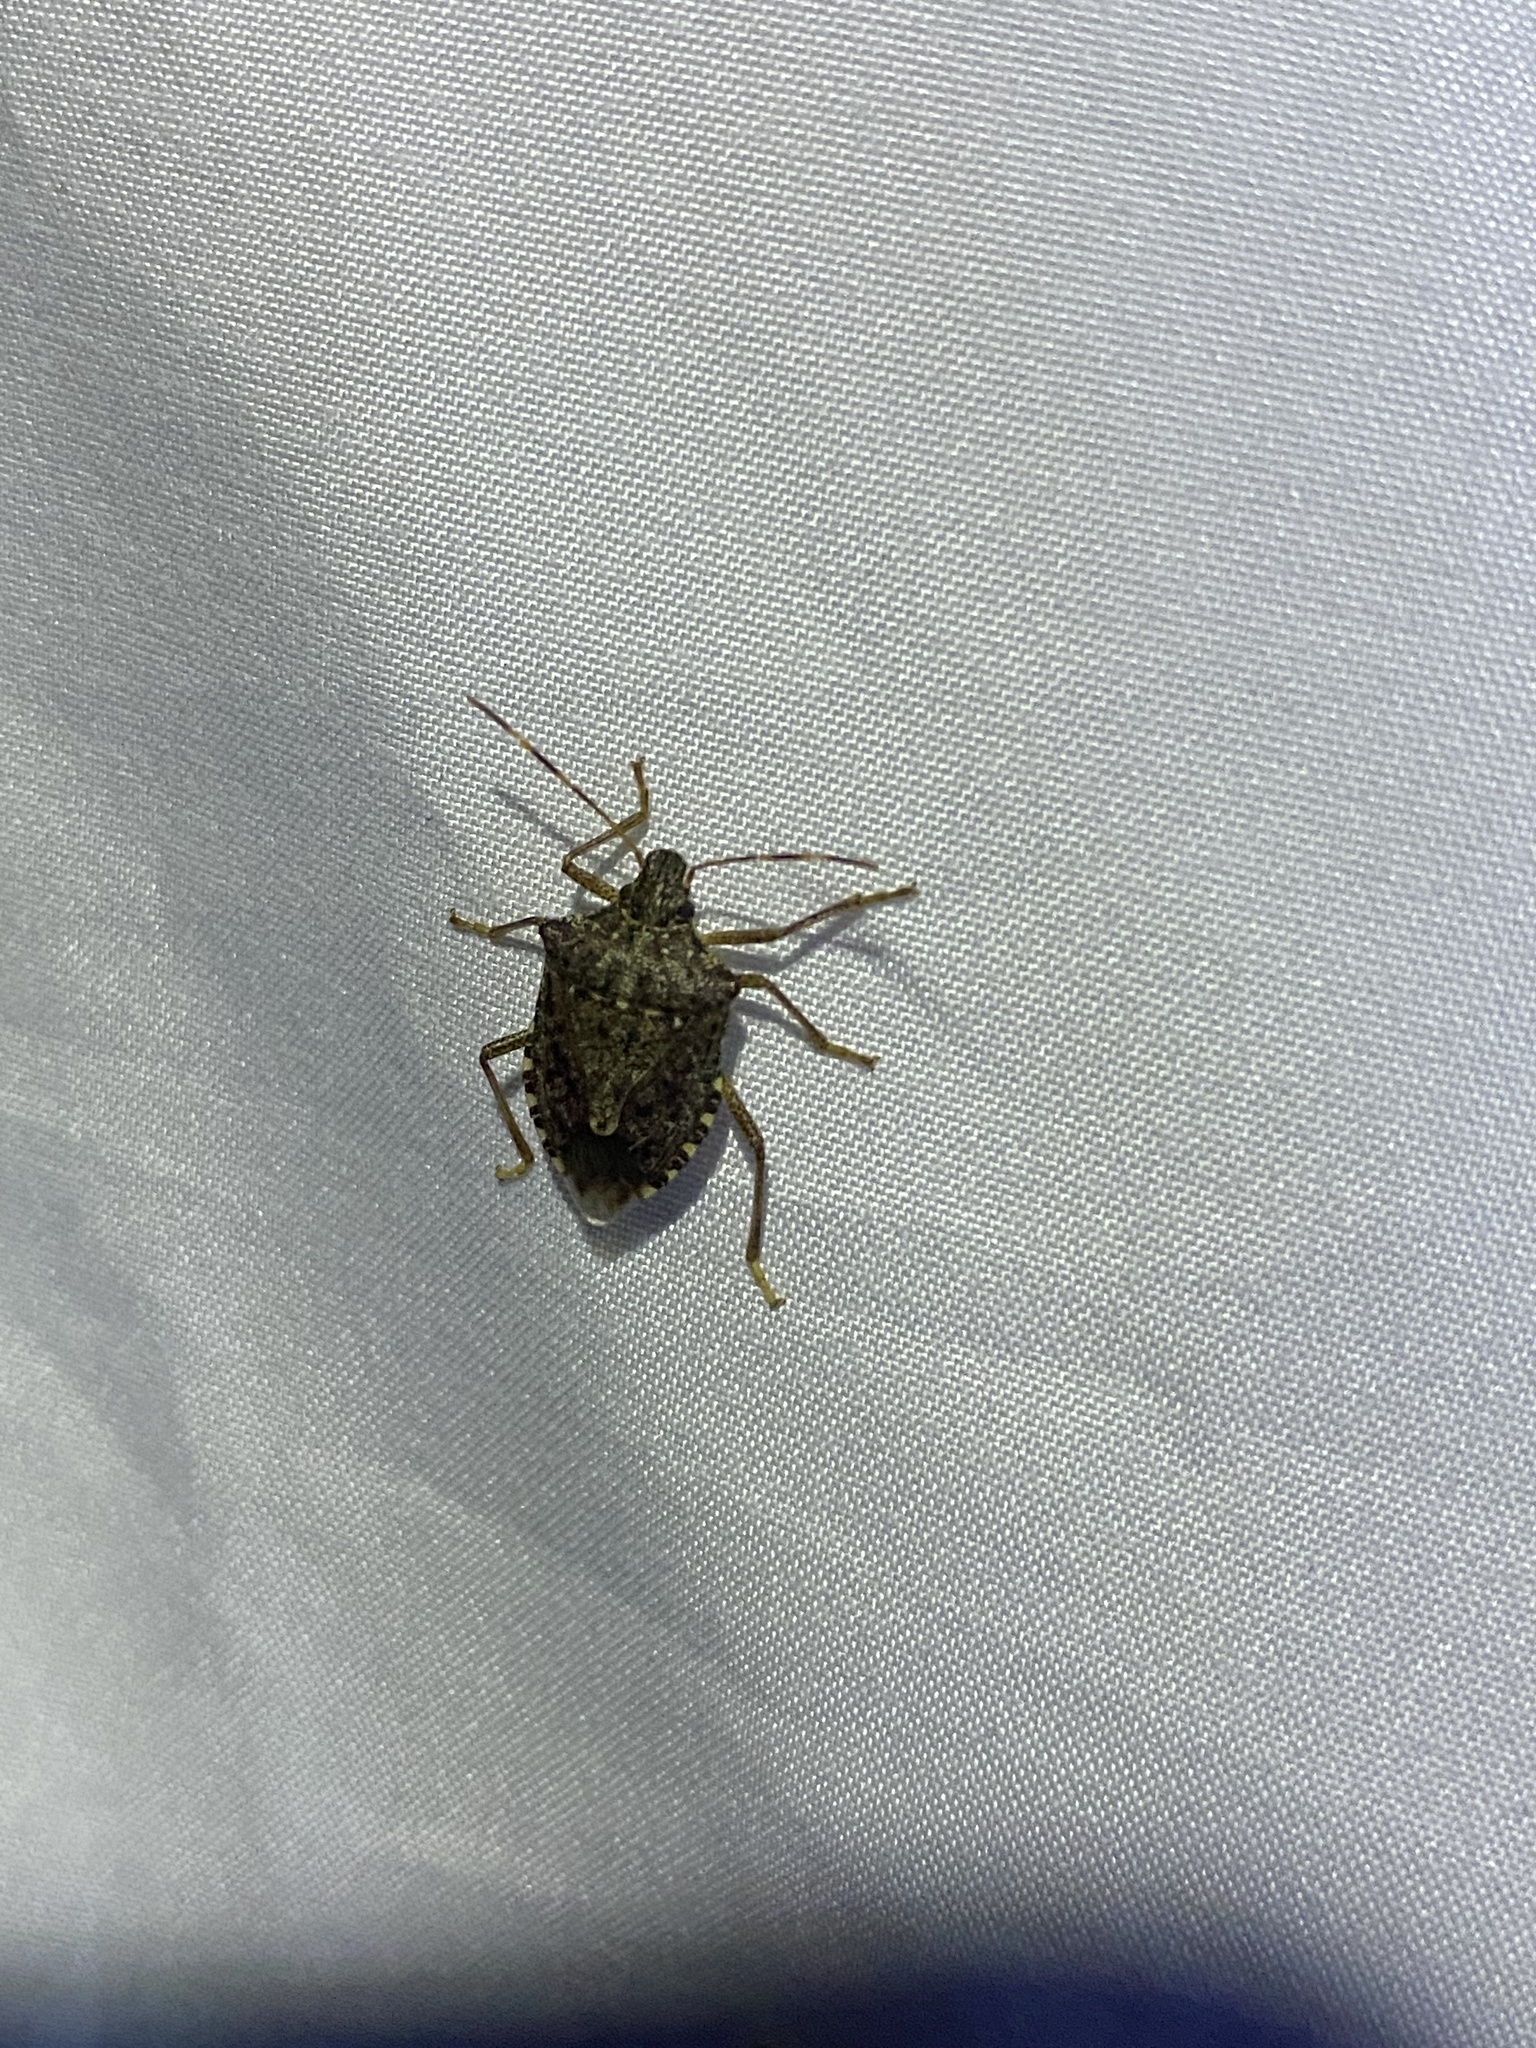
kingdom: Animalia
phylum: Arthropoda
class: Insecta
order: Hemiptera
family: Pentatomidae
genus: Halyomorpha
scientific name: Halyomorpha halys
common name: Brown marmorated stink bug
